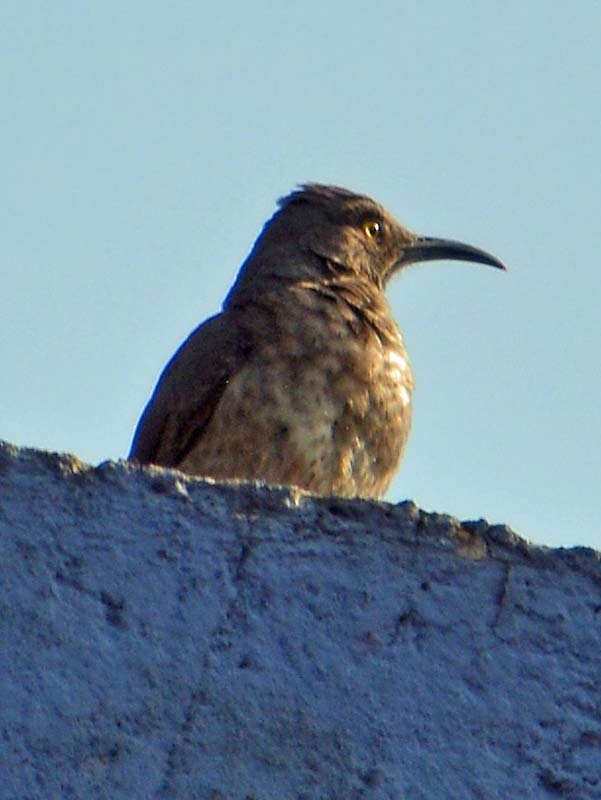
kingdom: Animalia
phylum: Chordata
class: Aves
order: Passeriformes
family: Mimidae
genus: Toxostoma
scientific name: Toxostoma curvirostre
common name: Curve-billed thrasher
